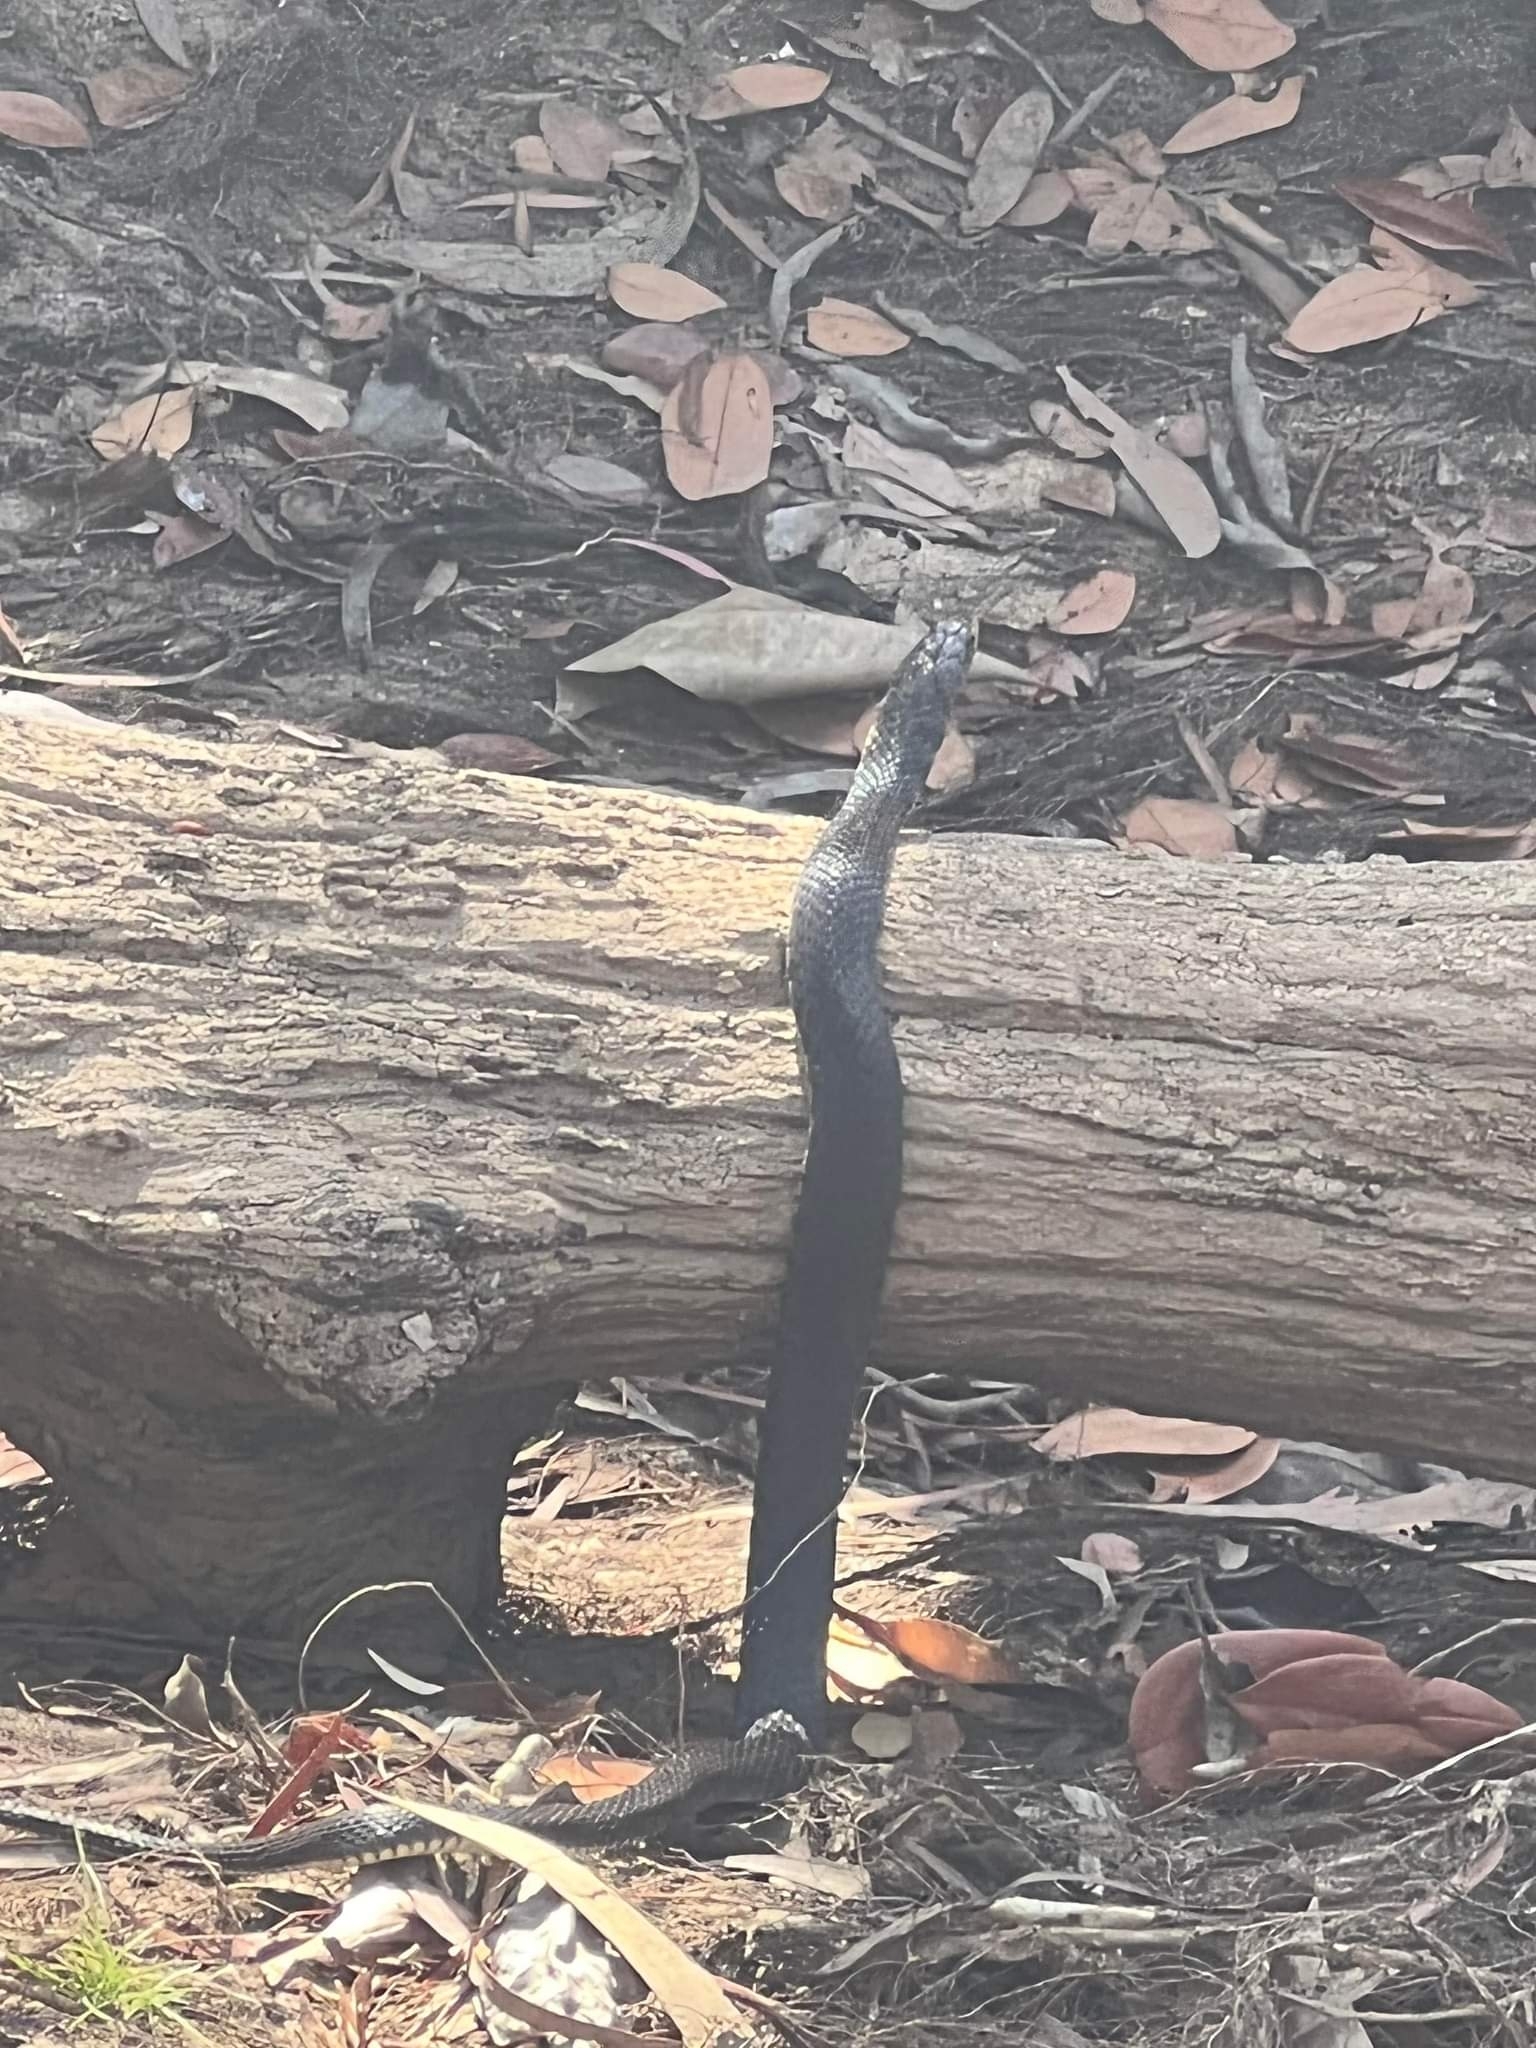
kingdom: Animalia
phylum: Chordata
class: Squamata
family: Colubridae
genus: Tropidonophis
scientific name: Tropidonophis mairii
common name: Common keelback
